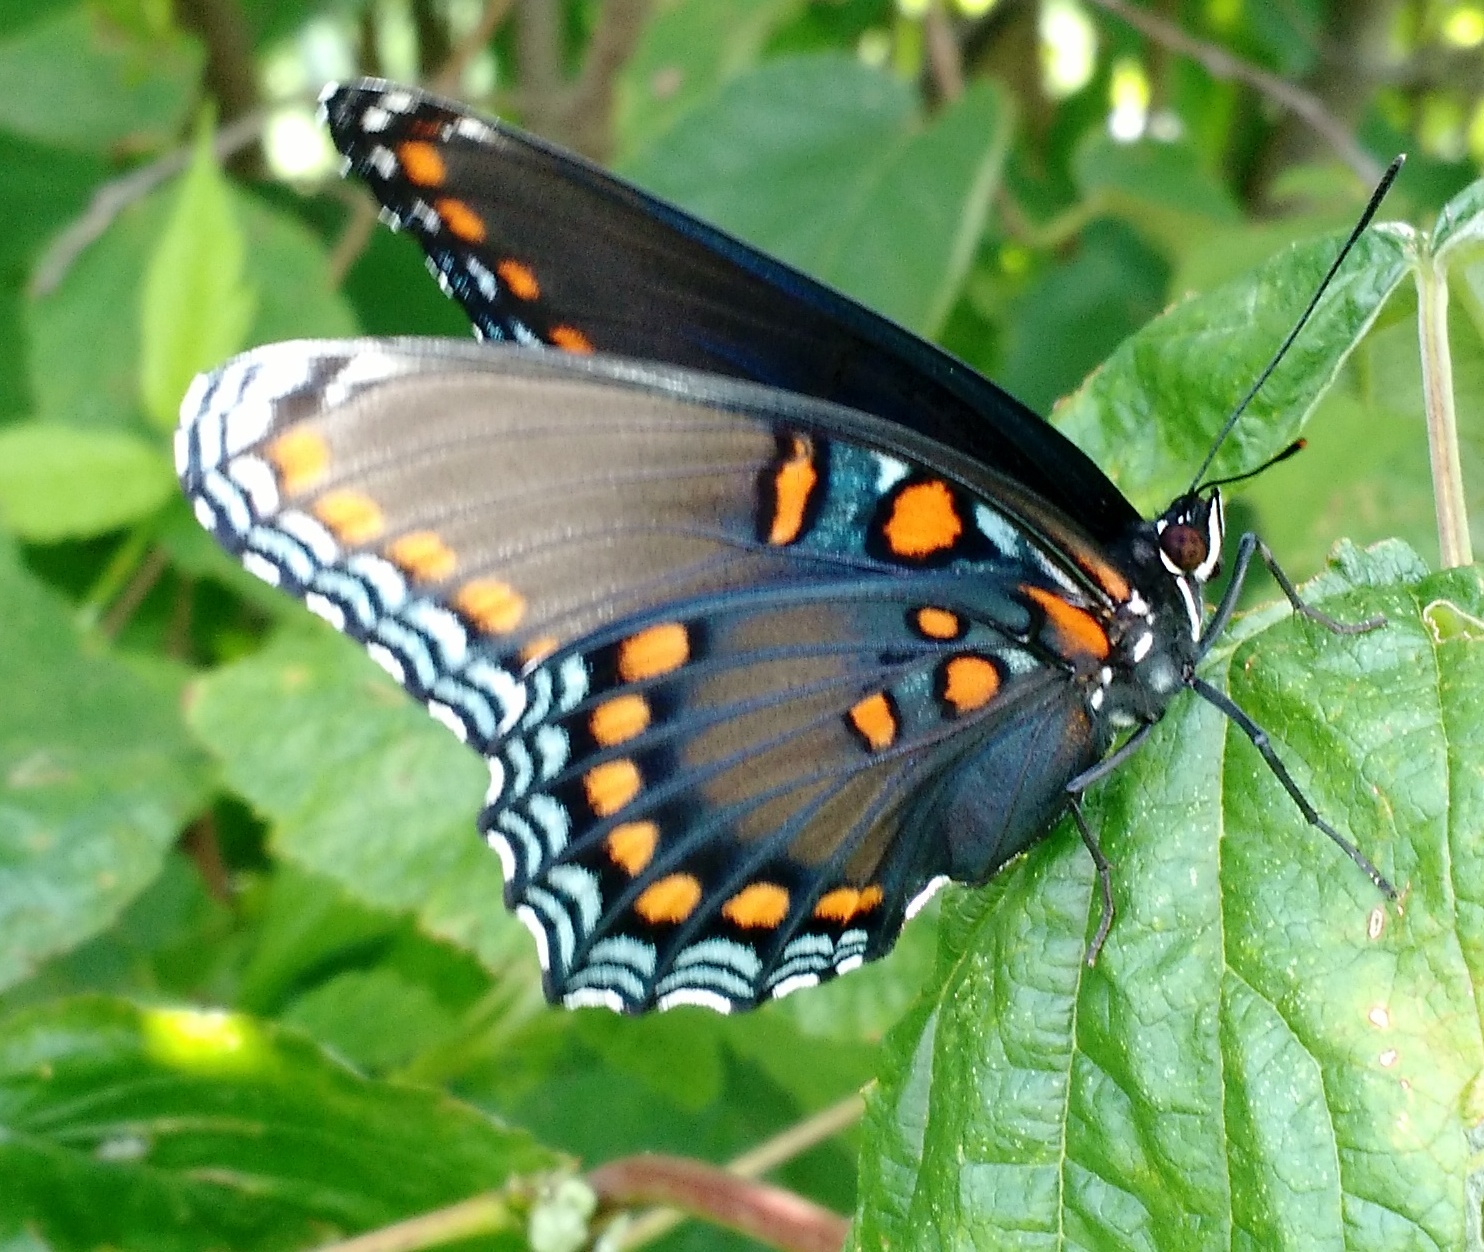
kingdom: Animalia
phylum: Arthropoda
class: Insecta
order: Lepidoptera
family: Nymphalidae
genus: Limenitis
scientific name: Limenitis astyanax
